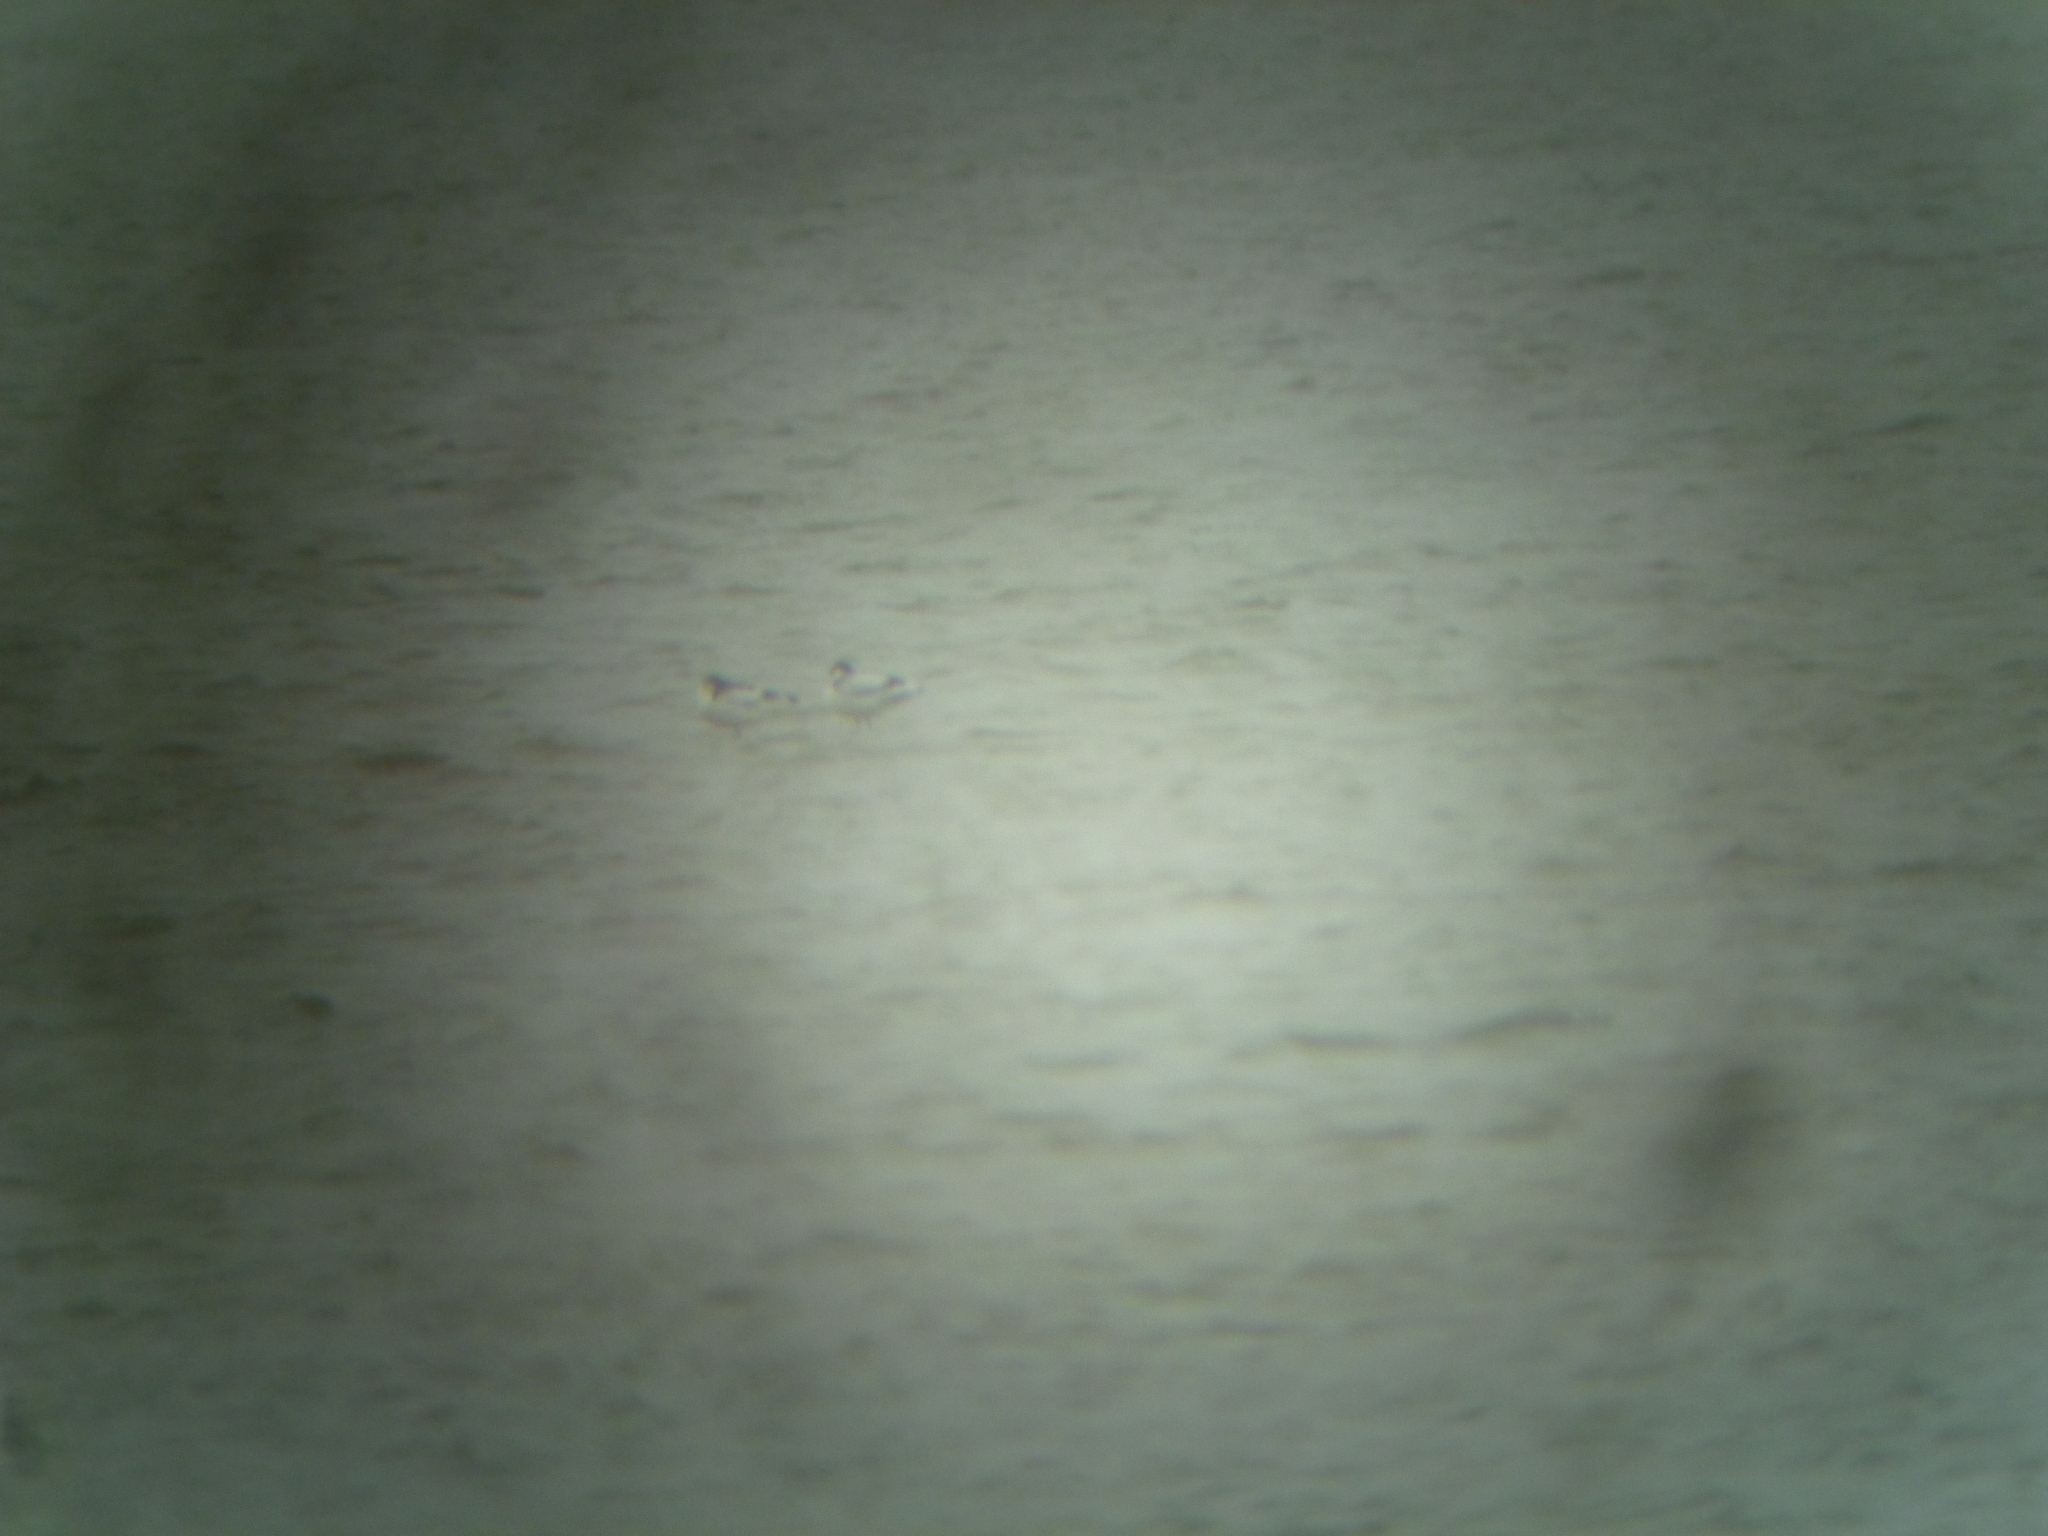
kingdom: Animalia
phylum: Chordata
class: Aves
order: Charadriiformes
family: Recurvirostridae
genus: Recurvirostra
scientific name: Recurvirostra avosetta
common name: Pied avocet
